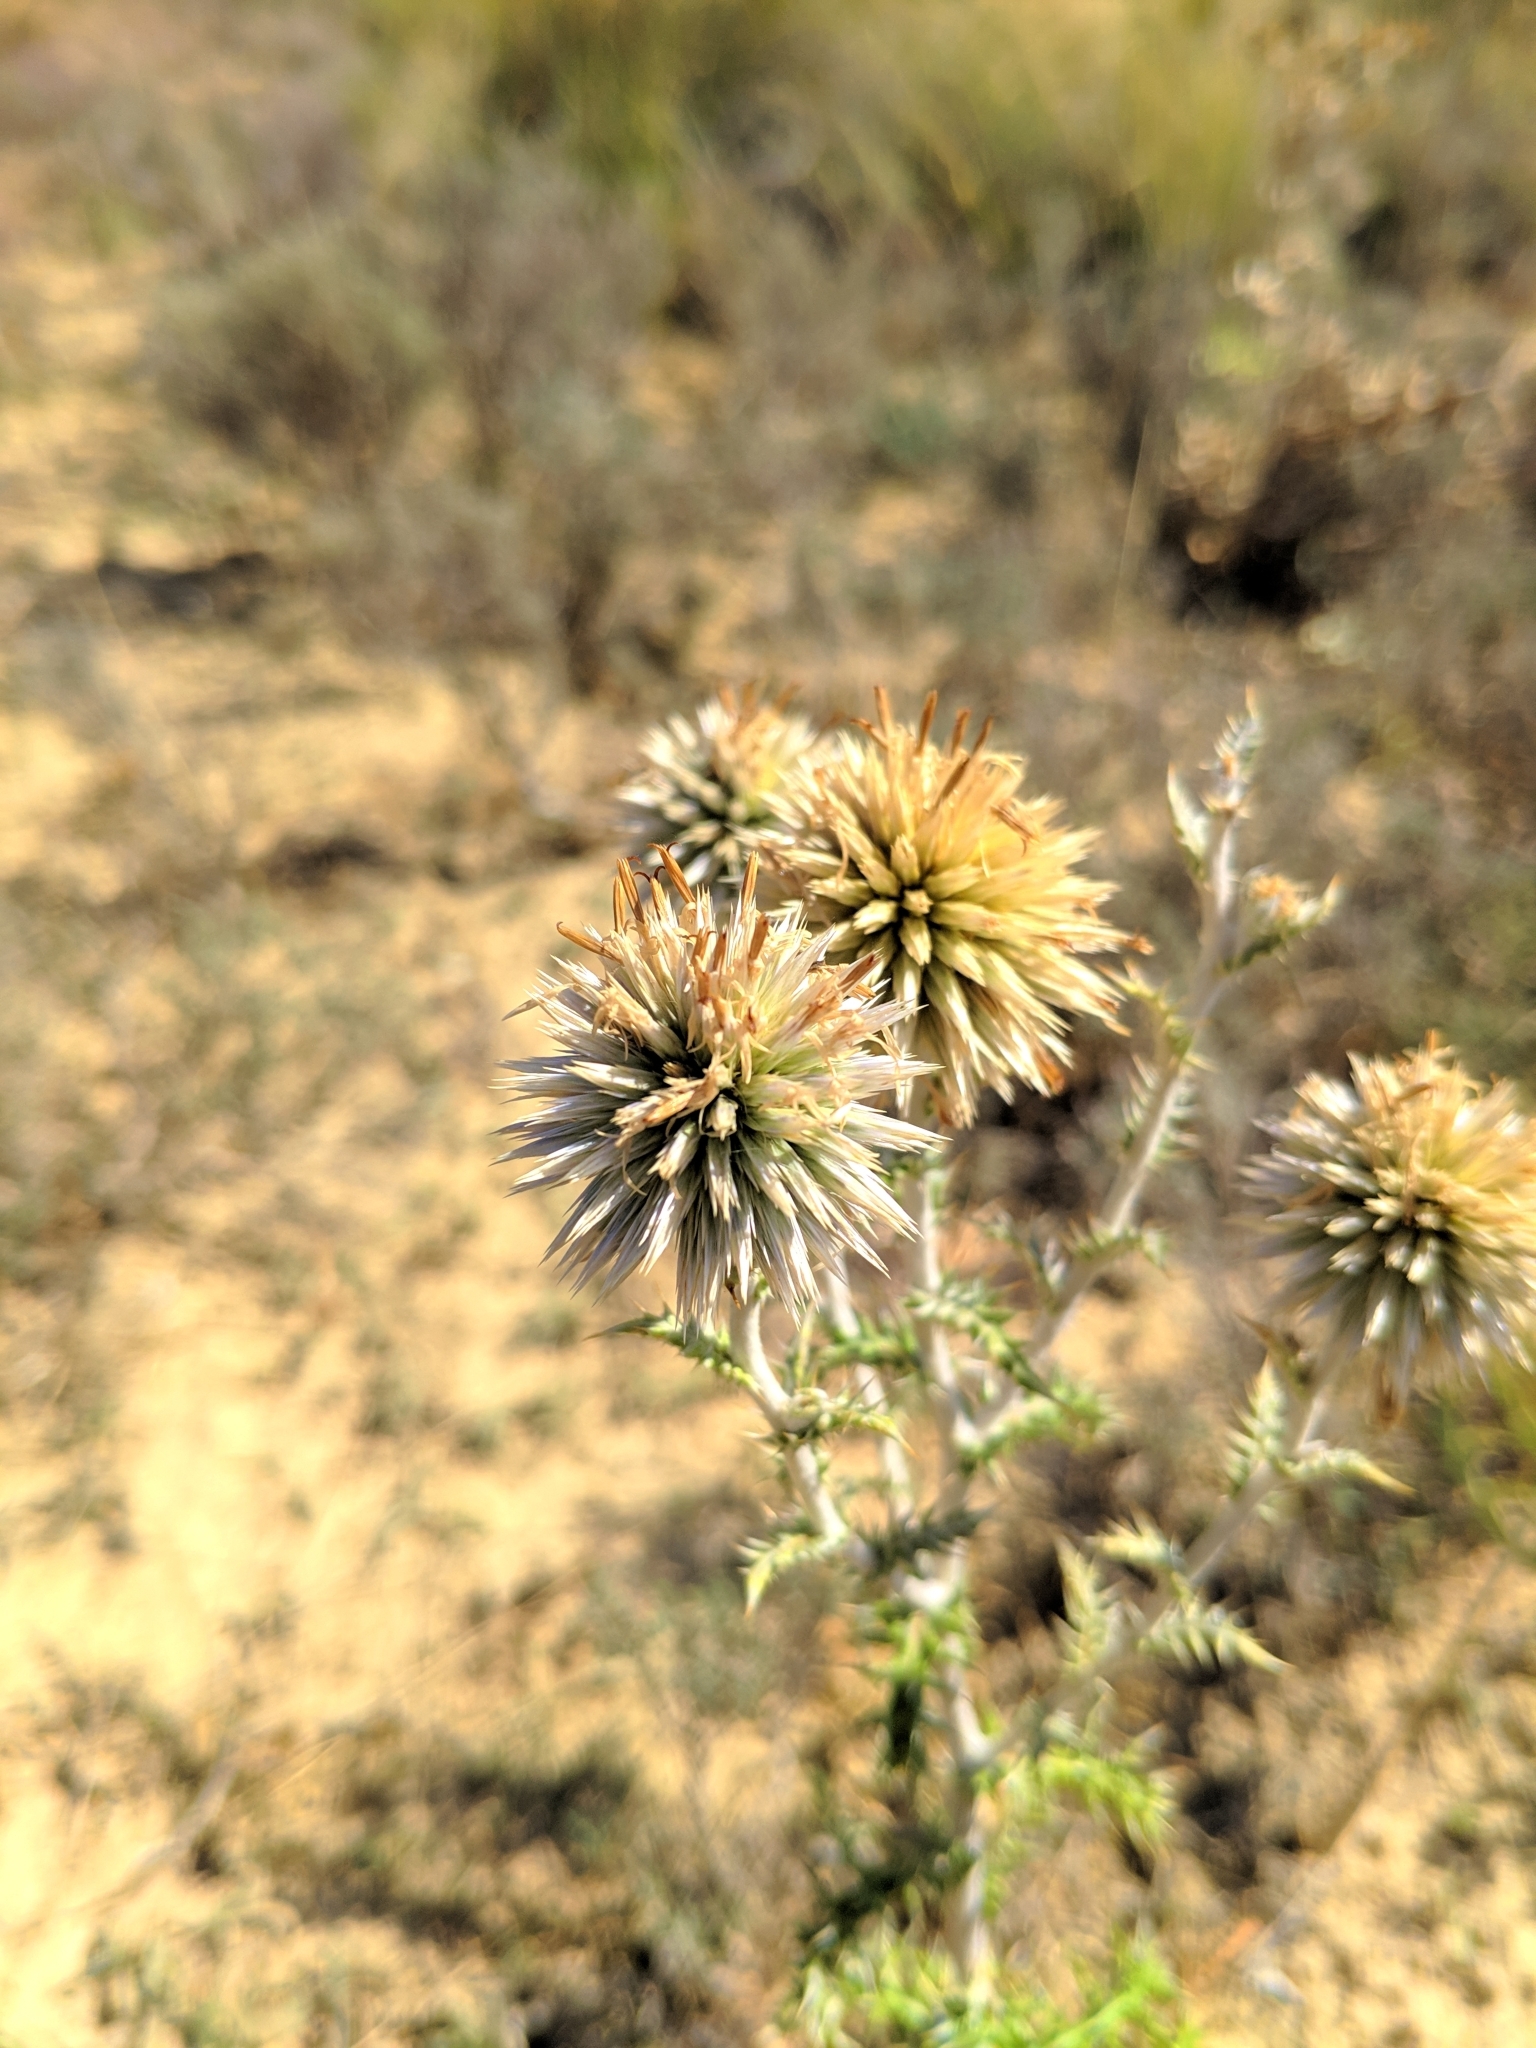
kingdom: Plantae
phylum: Tracheophyta
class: Magnoliopsida
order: Asterales
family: Asteraceae
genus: Echinops
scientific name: Echinops ritro
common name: Globe thistle
